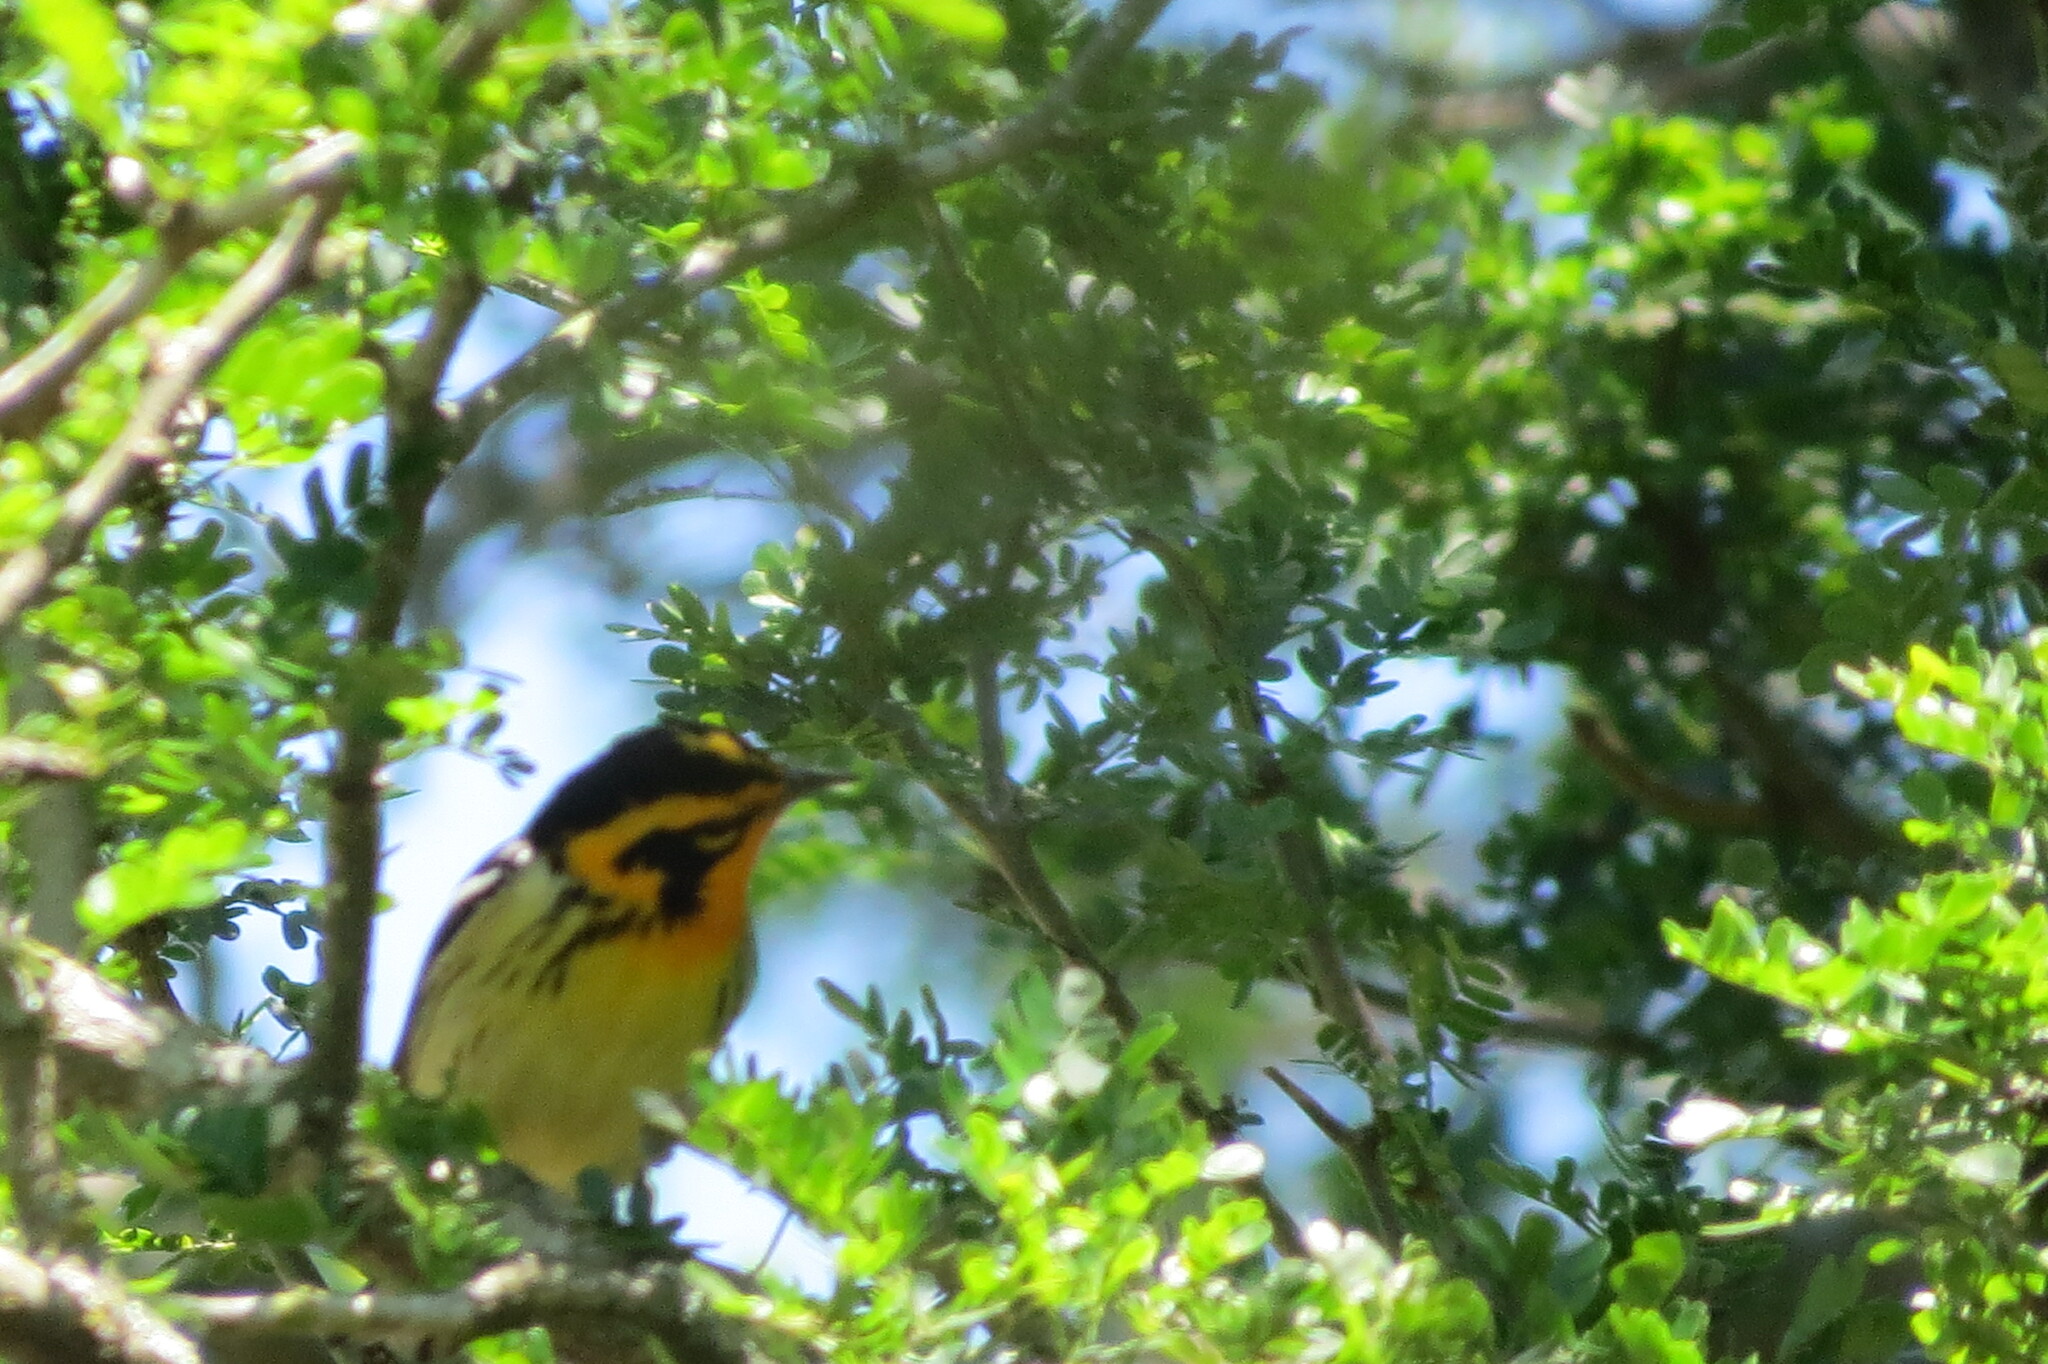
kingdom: Animalia
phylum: Chordata
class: Aves
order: Passeriformes
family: Parulidae
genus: Setophaga
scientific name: Setophaga fusca
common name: Blackburnian warbler
